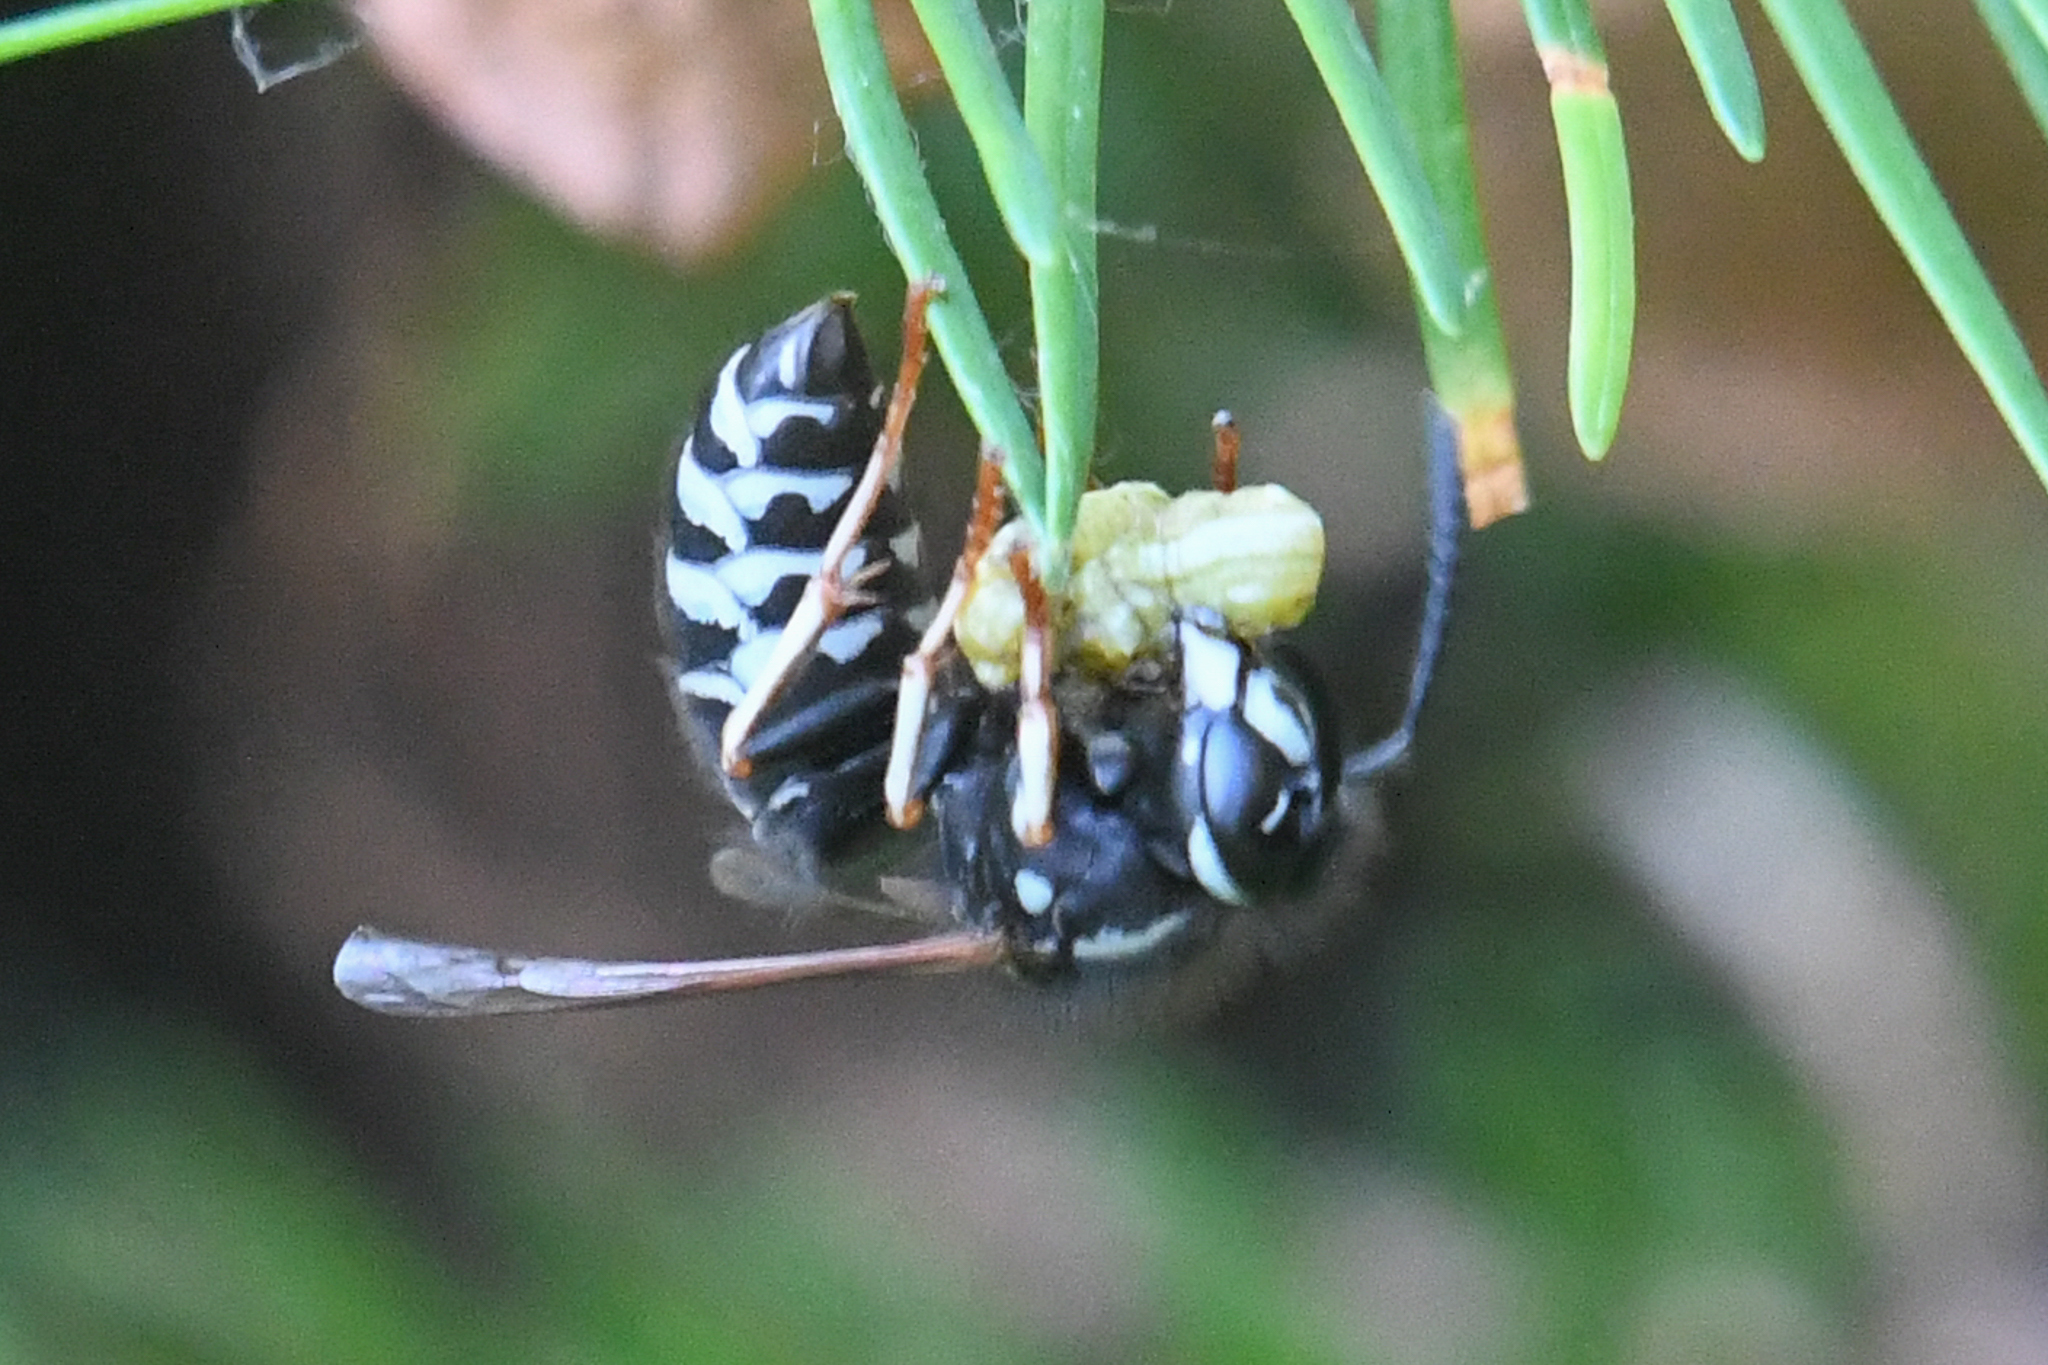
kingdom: Animalia
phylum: Arthropoda
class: Insecta
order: Hymenoptera
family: Vespidae
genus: Vespula
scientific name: Vespula consobrina
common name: Blackjacket
